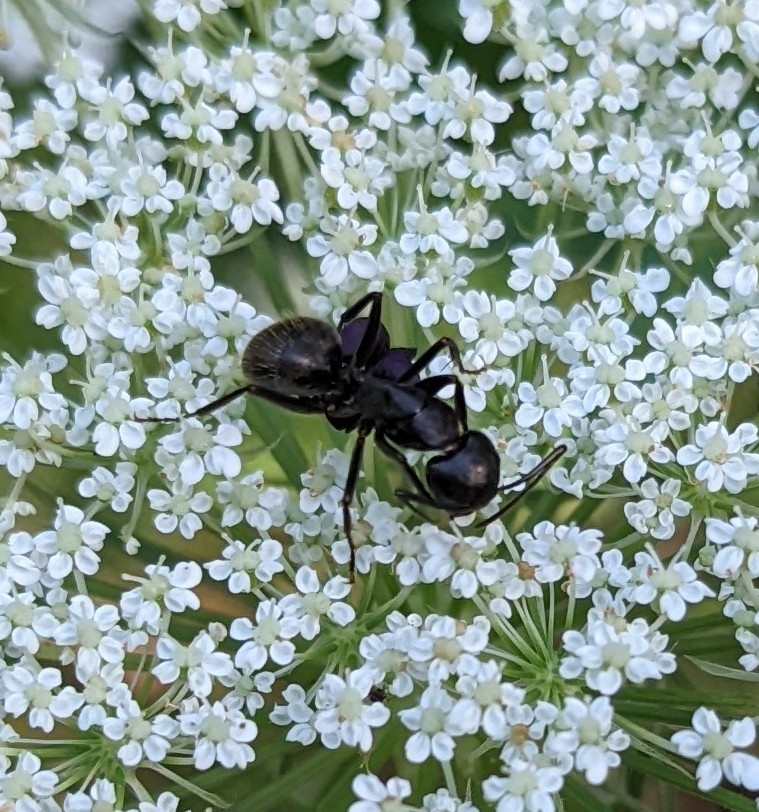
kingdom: Animalia
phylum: Arthropoda
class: Insecta
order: Hymenoptera
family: Formicidae
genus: Camponotus
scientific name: Camponotus pennsylvanicus
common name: Black carpenter ant
